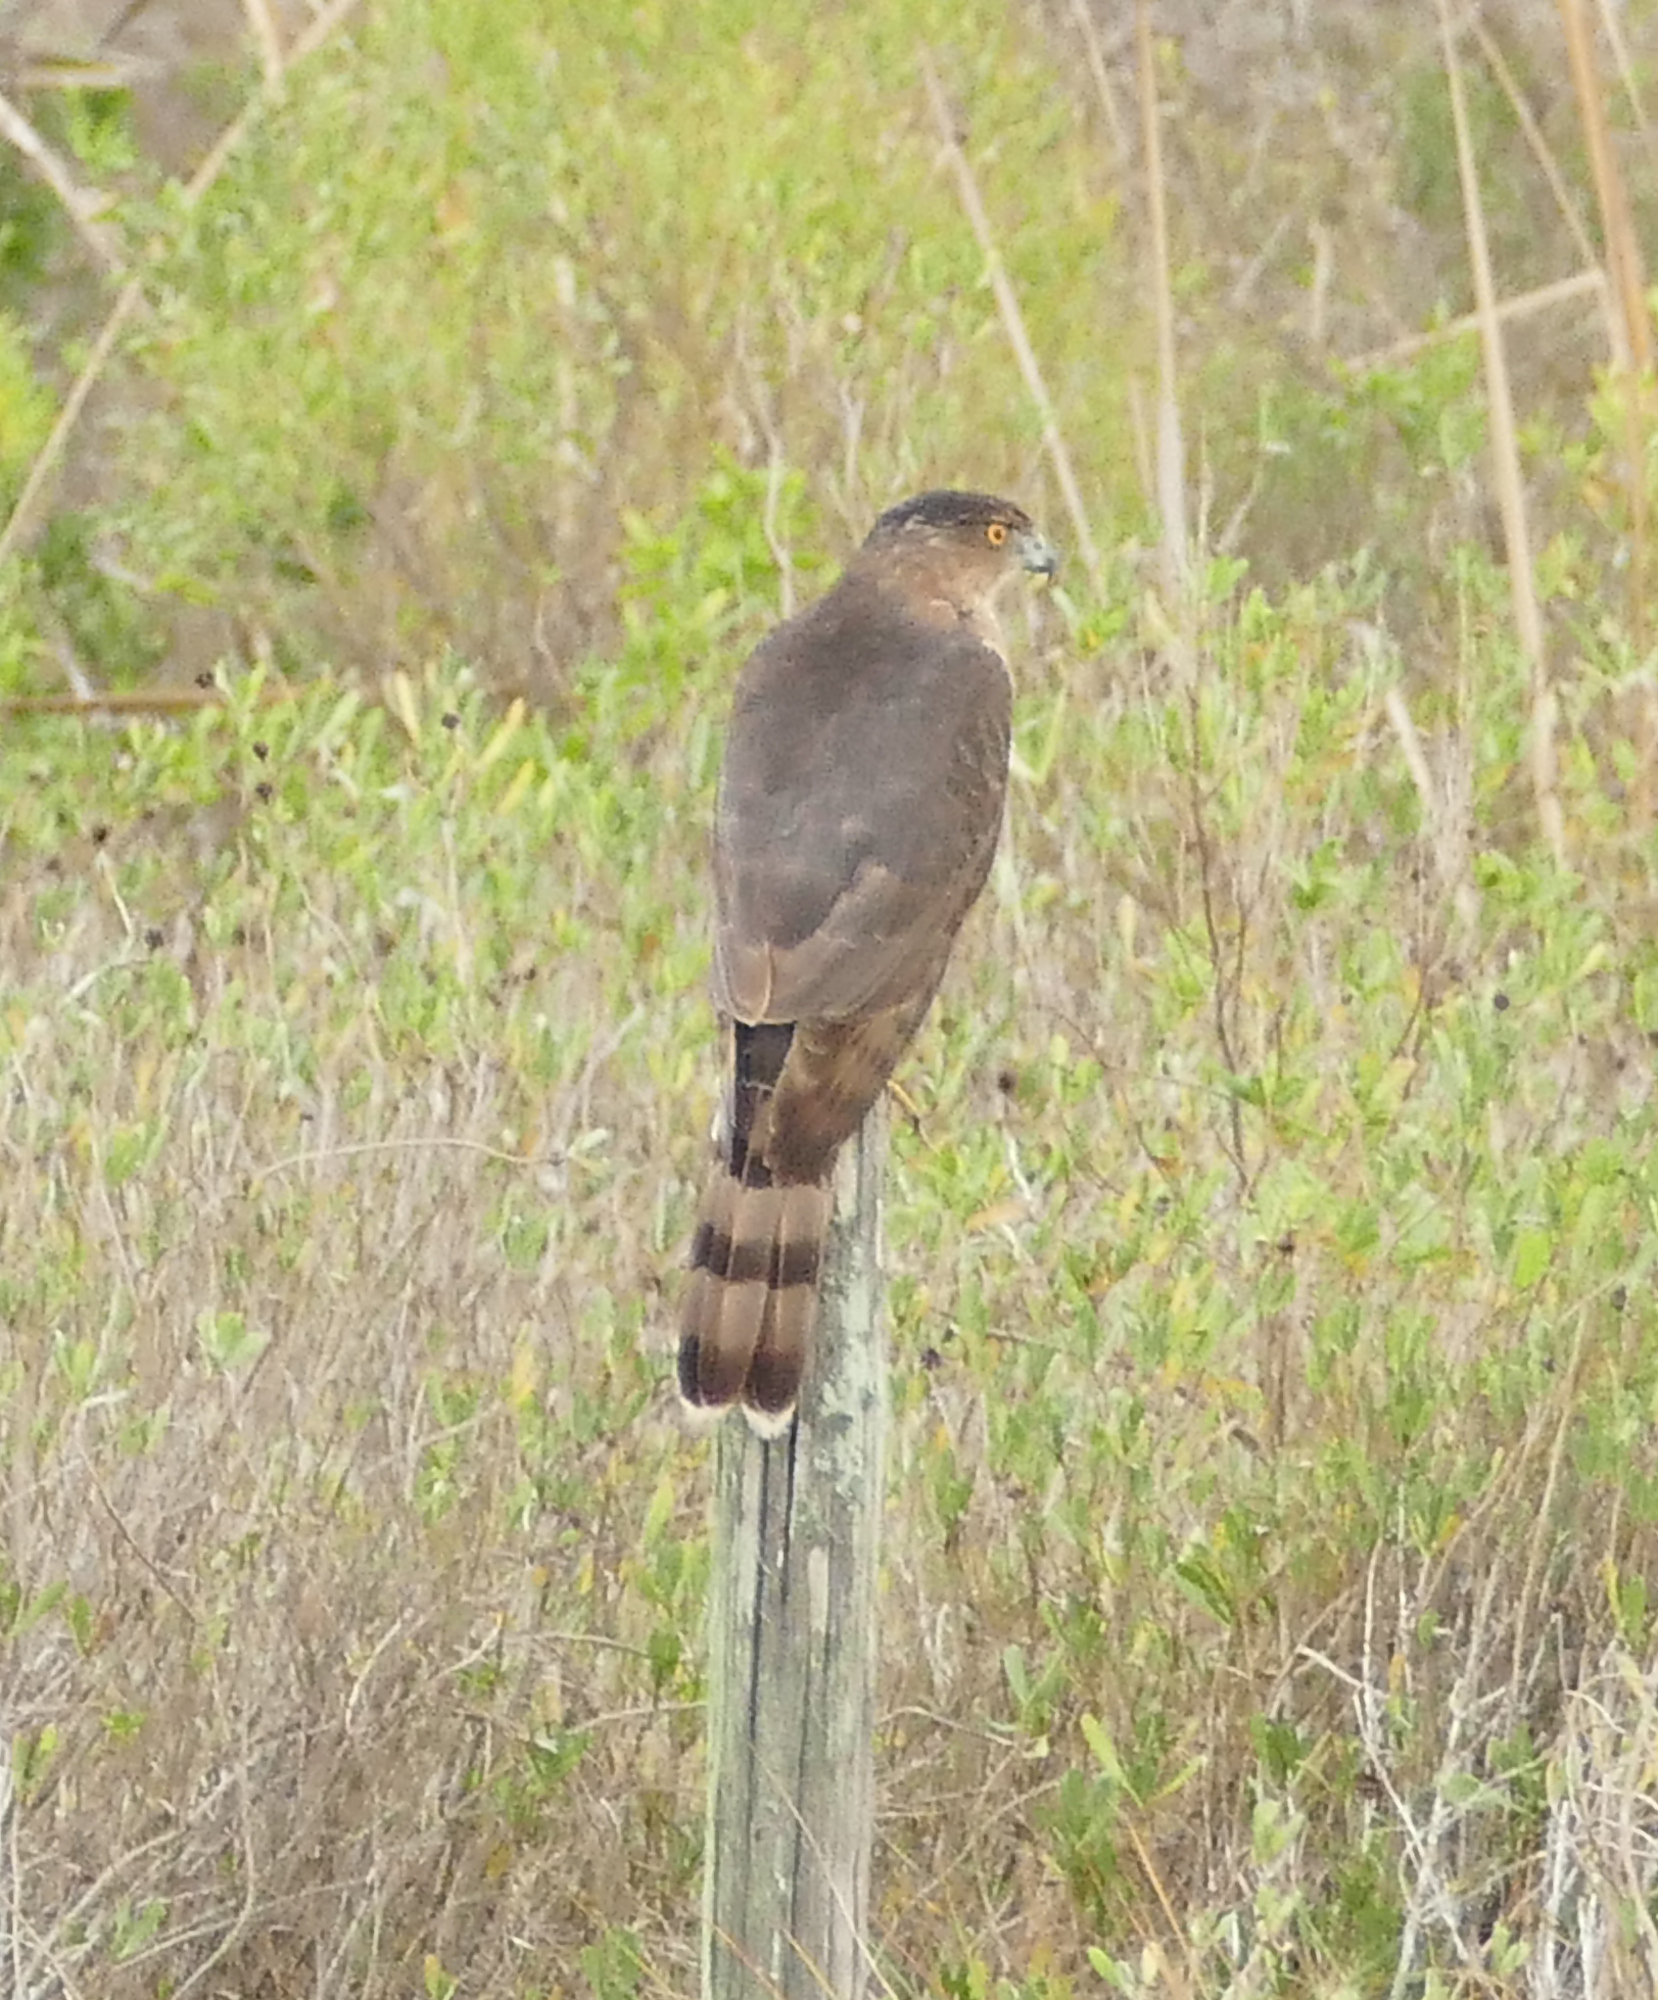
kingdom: Animalia
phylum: Chordata
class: Aves
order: Accipitriformes
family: Accipitridae
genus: Accipiter
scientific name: Accipiter cooperii
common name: Cooper's hawk
